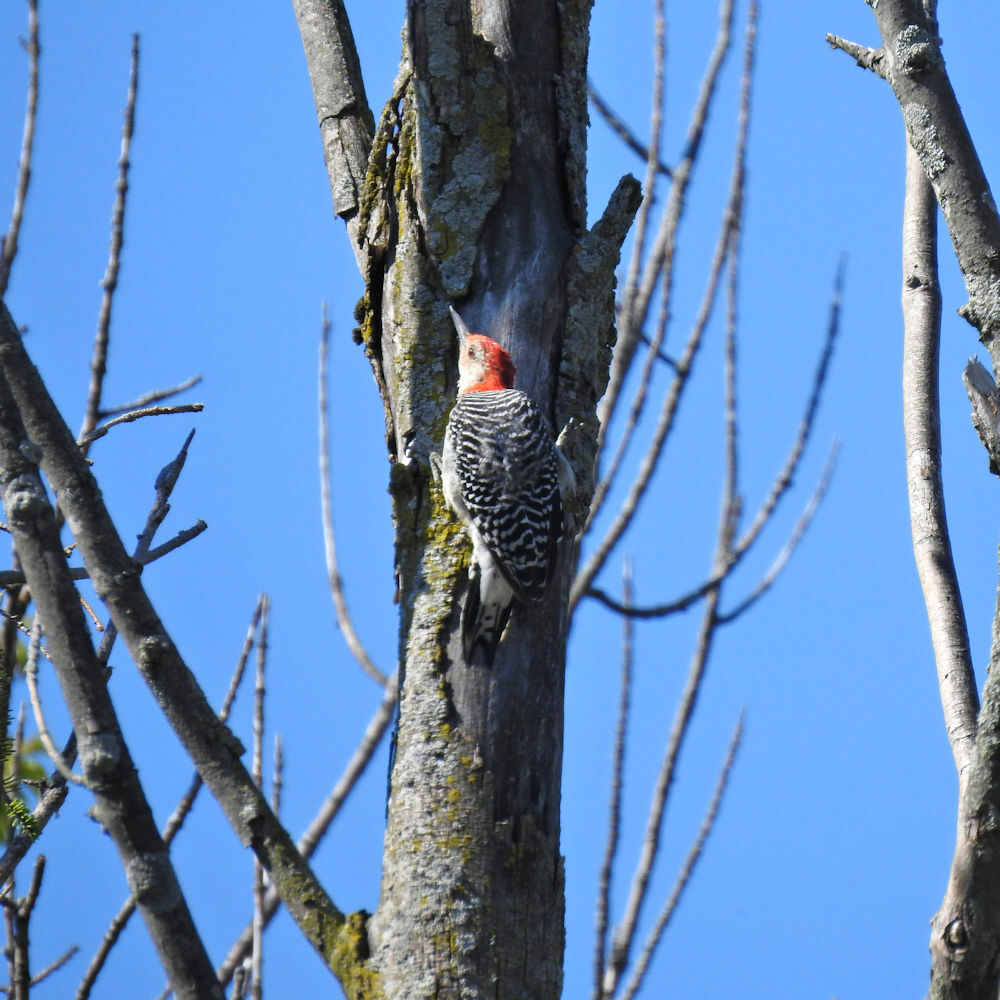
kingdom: Animalia
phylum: Chordata
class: Aves
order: Piciformes
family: Picidae
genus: Melanerpes
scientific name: Melanerpes carolinus
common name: Red-bellied woodpecker
